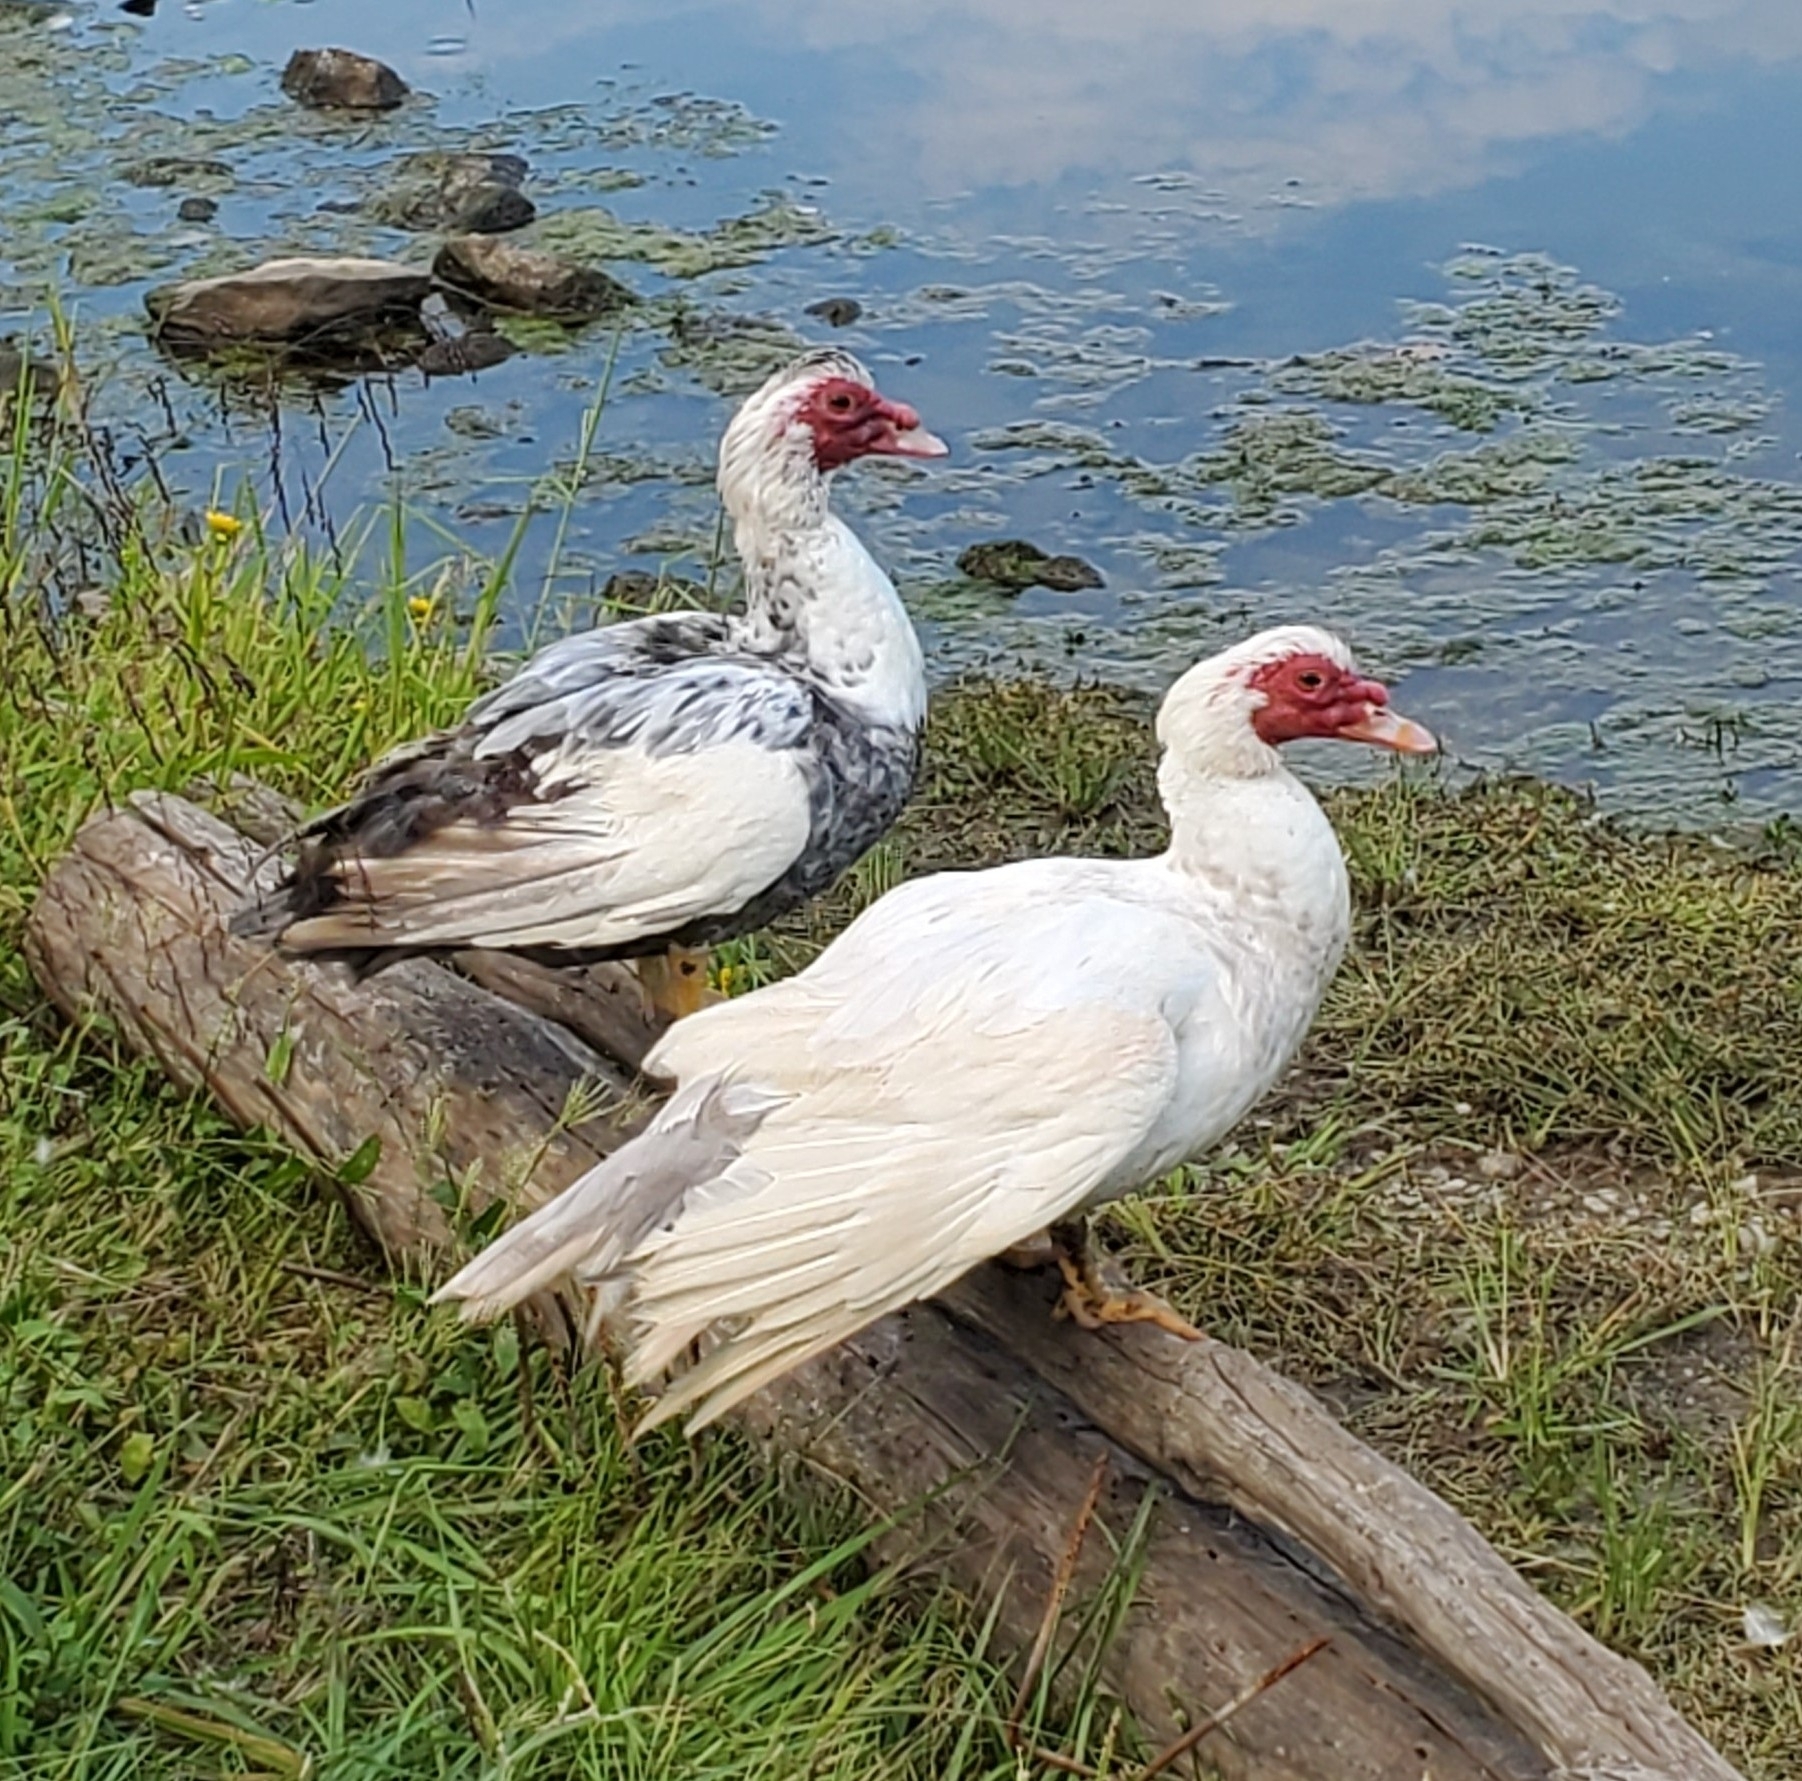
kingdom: Animalia
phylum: Chordata
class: Aves
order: Anseriformes
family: Anatidae
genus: Cairina
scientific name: Cairina moschata
